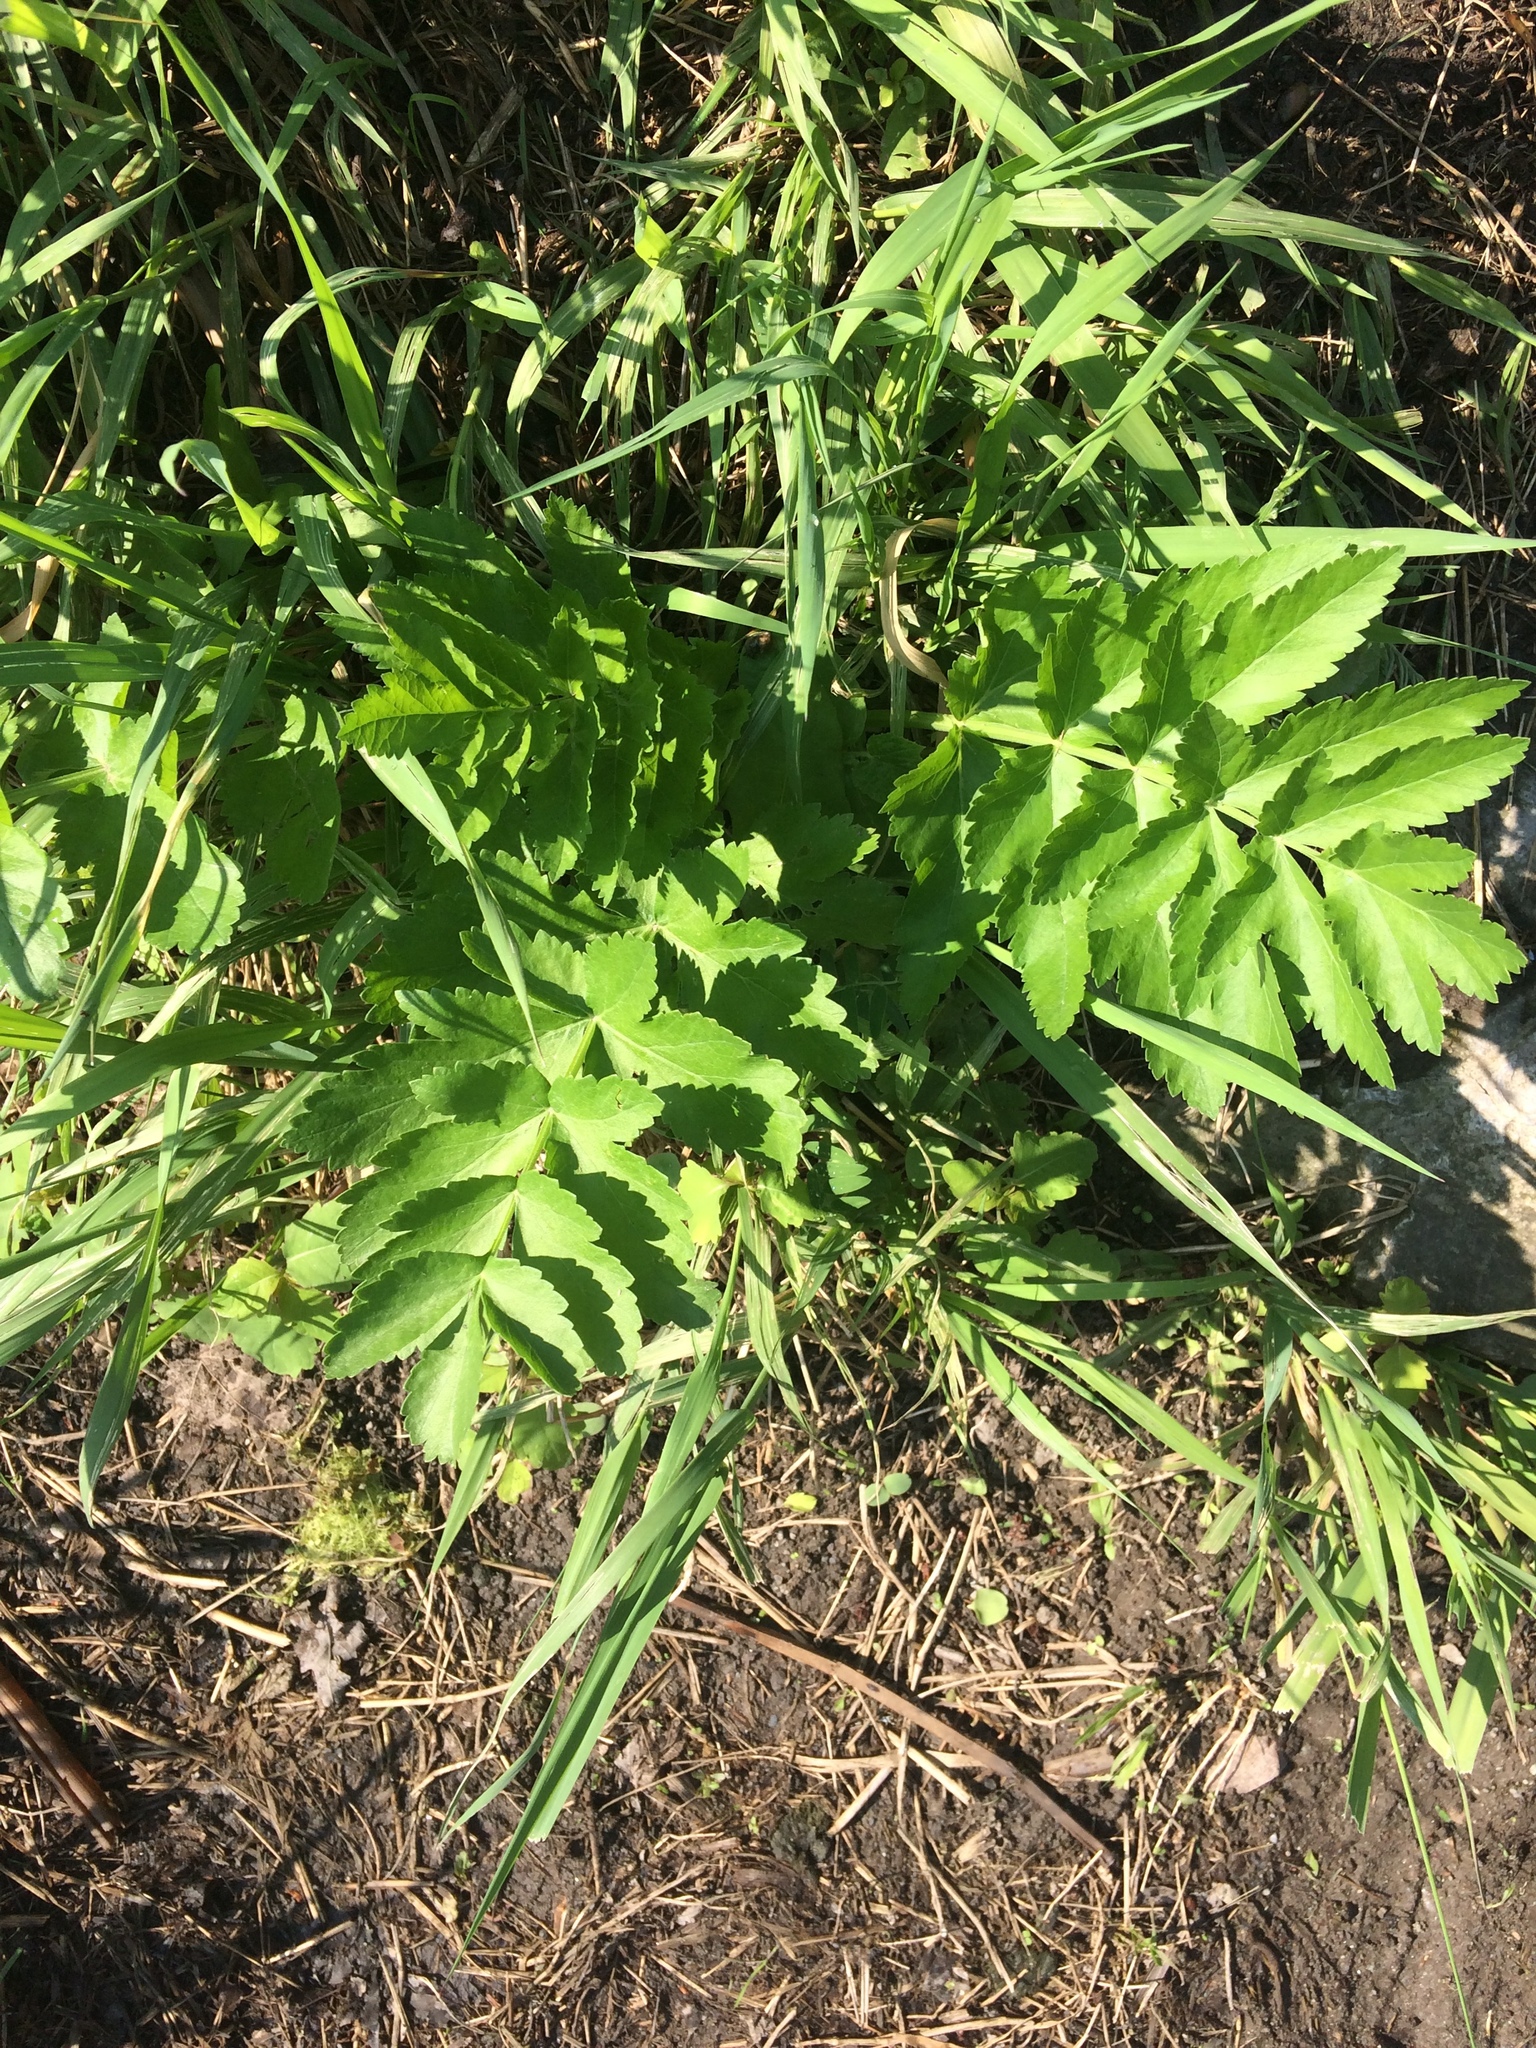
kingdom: Plantae
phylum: Tracheophyta
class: Magnoliopsida
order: Apiales
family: Apiaceae
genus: Pastinaca
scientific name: Pastinaca sativa
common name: Wild parsnip
